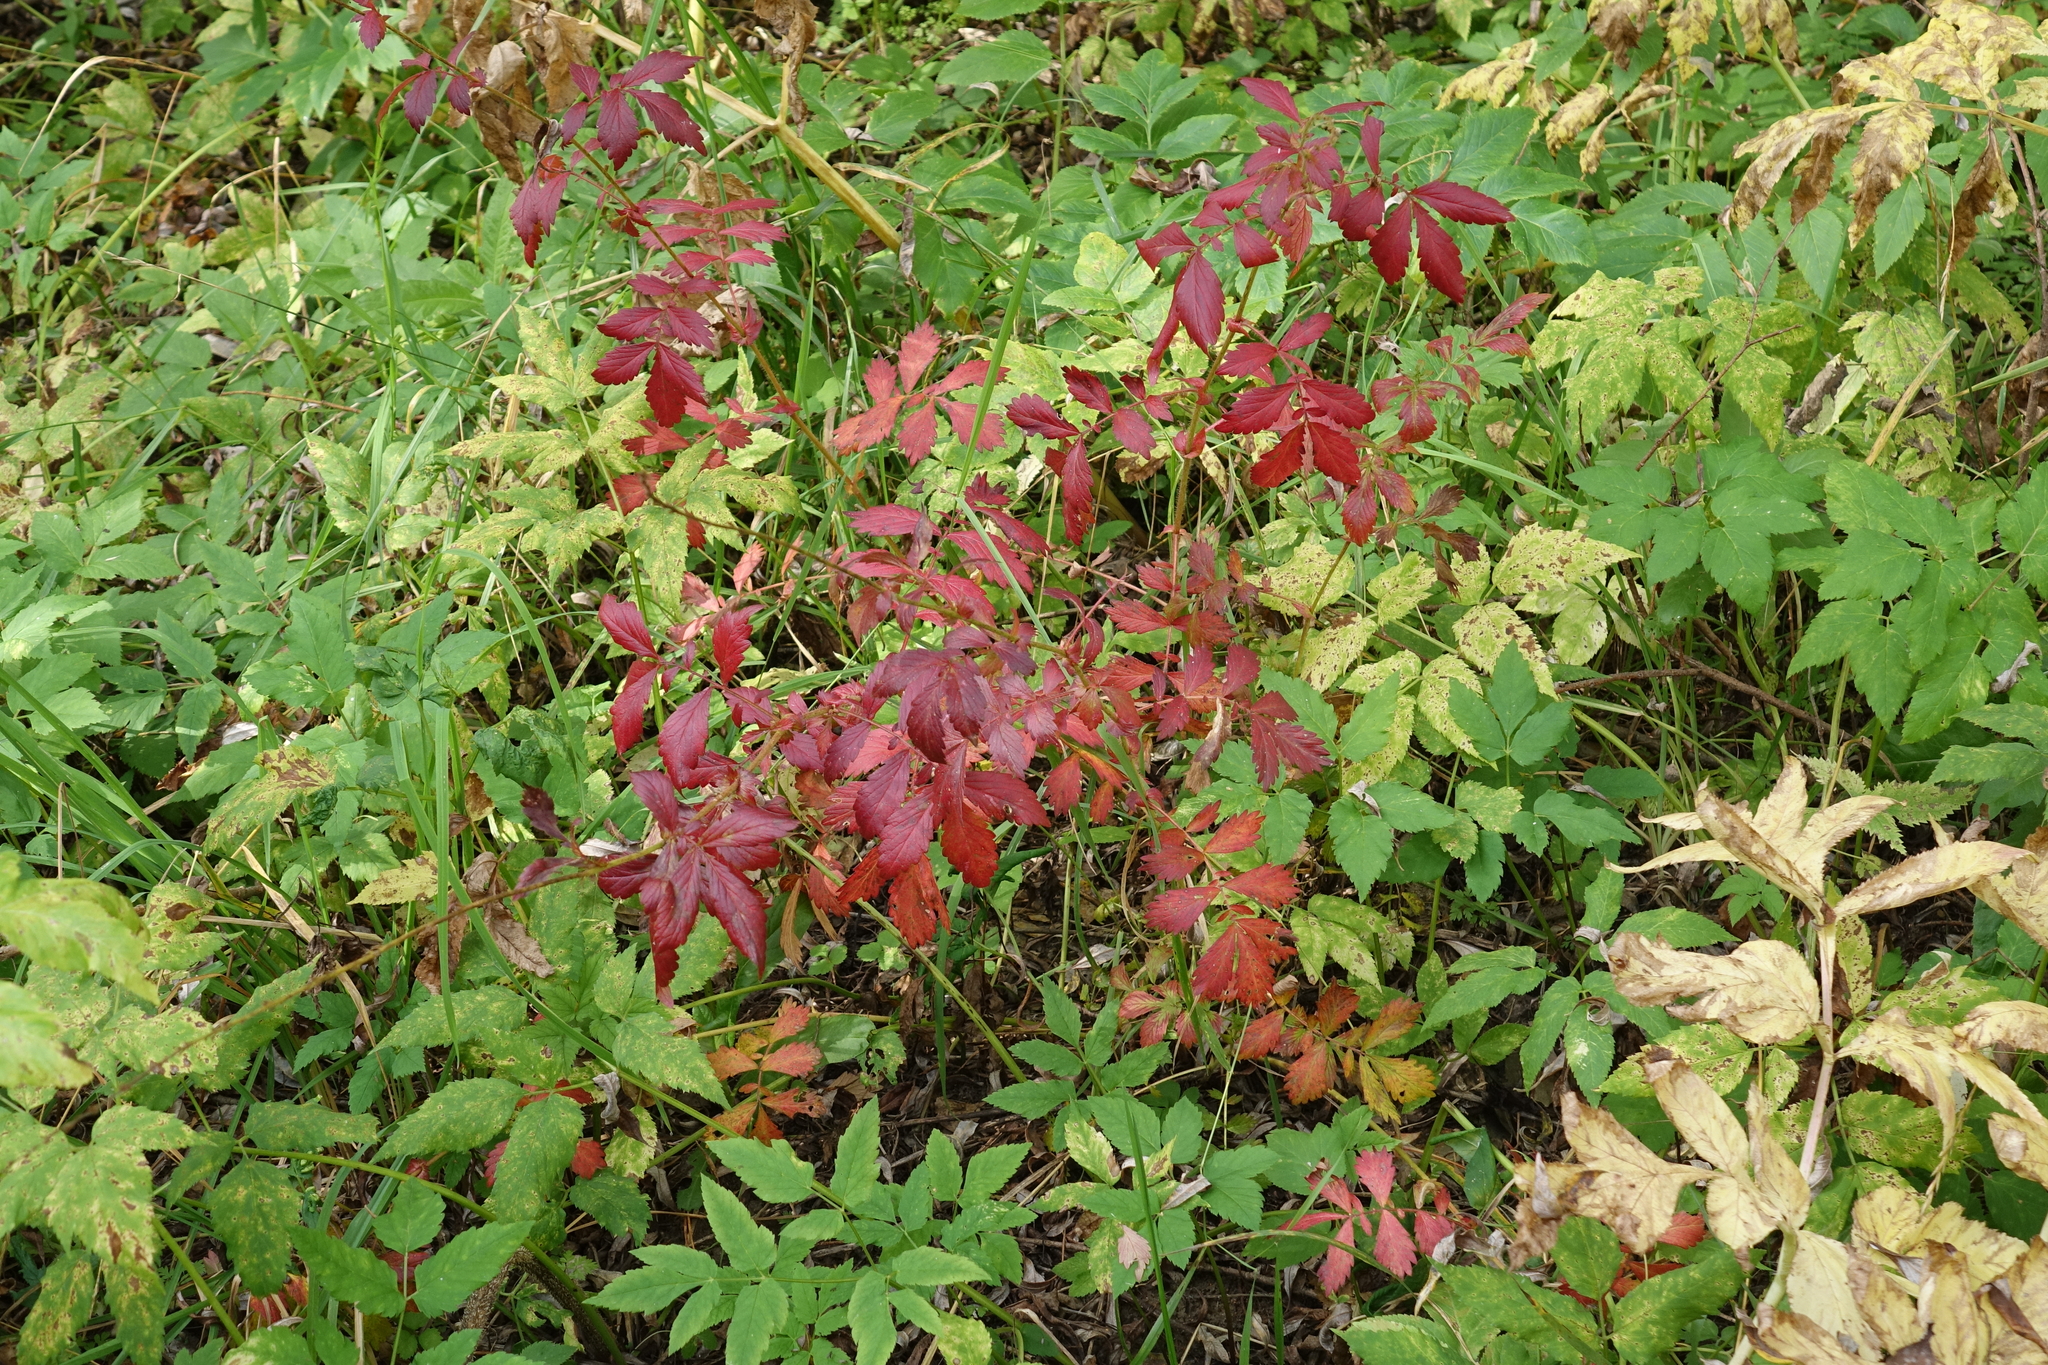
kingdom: Plantae
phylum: Tracheophyta
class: Magnoliopsida
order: Rosales
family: Rosaceae
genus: Agrimonia
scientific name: Agrimonia pilosa
